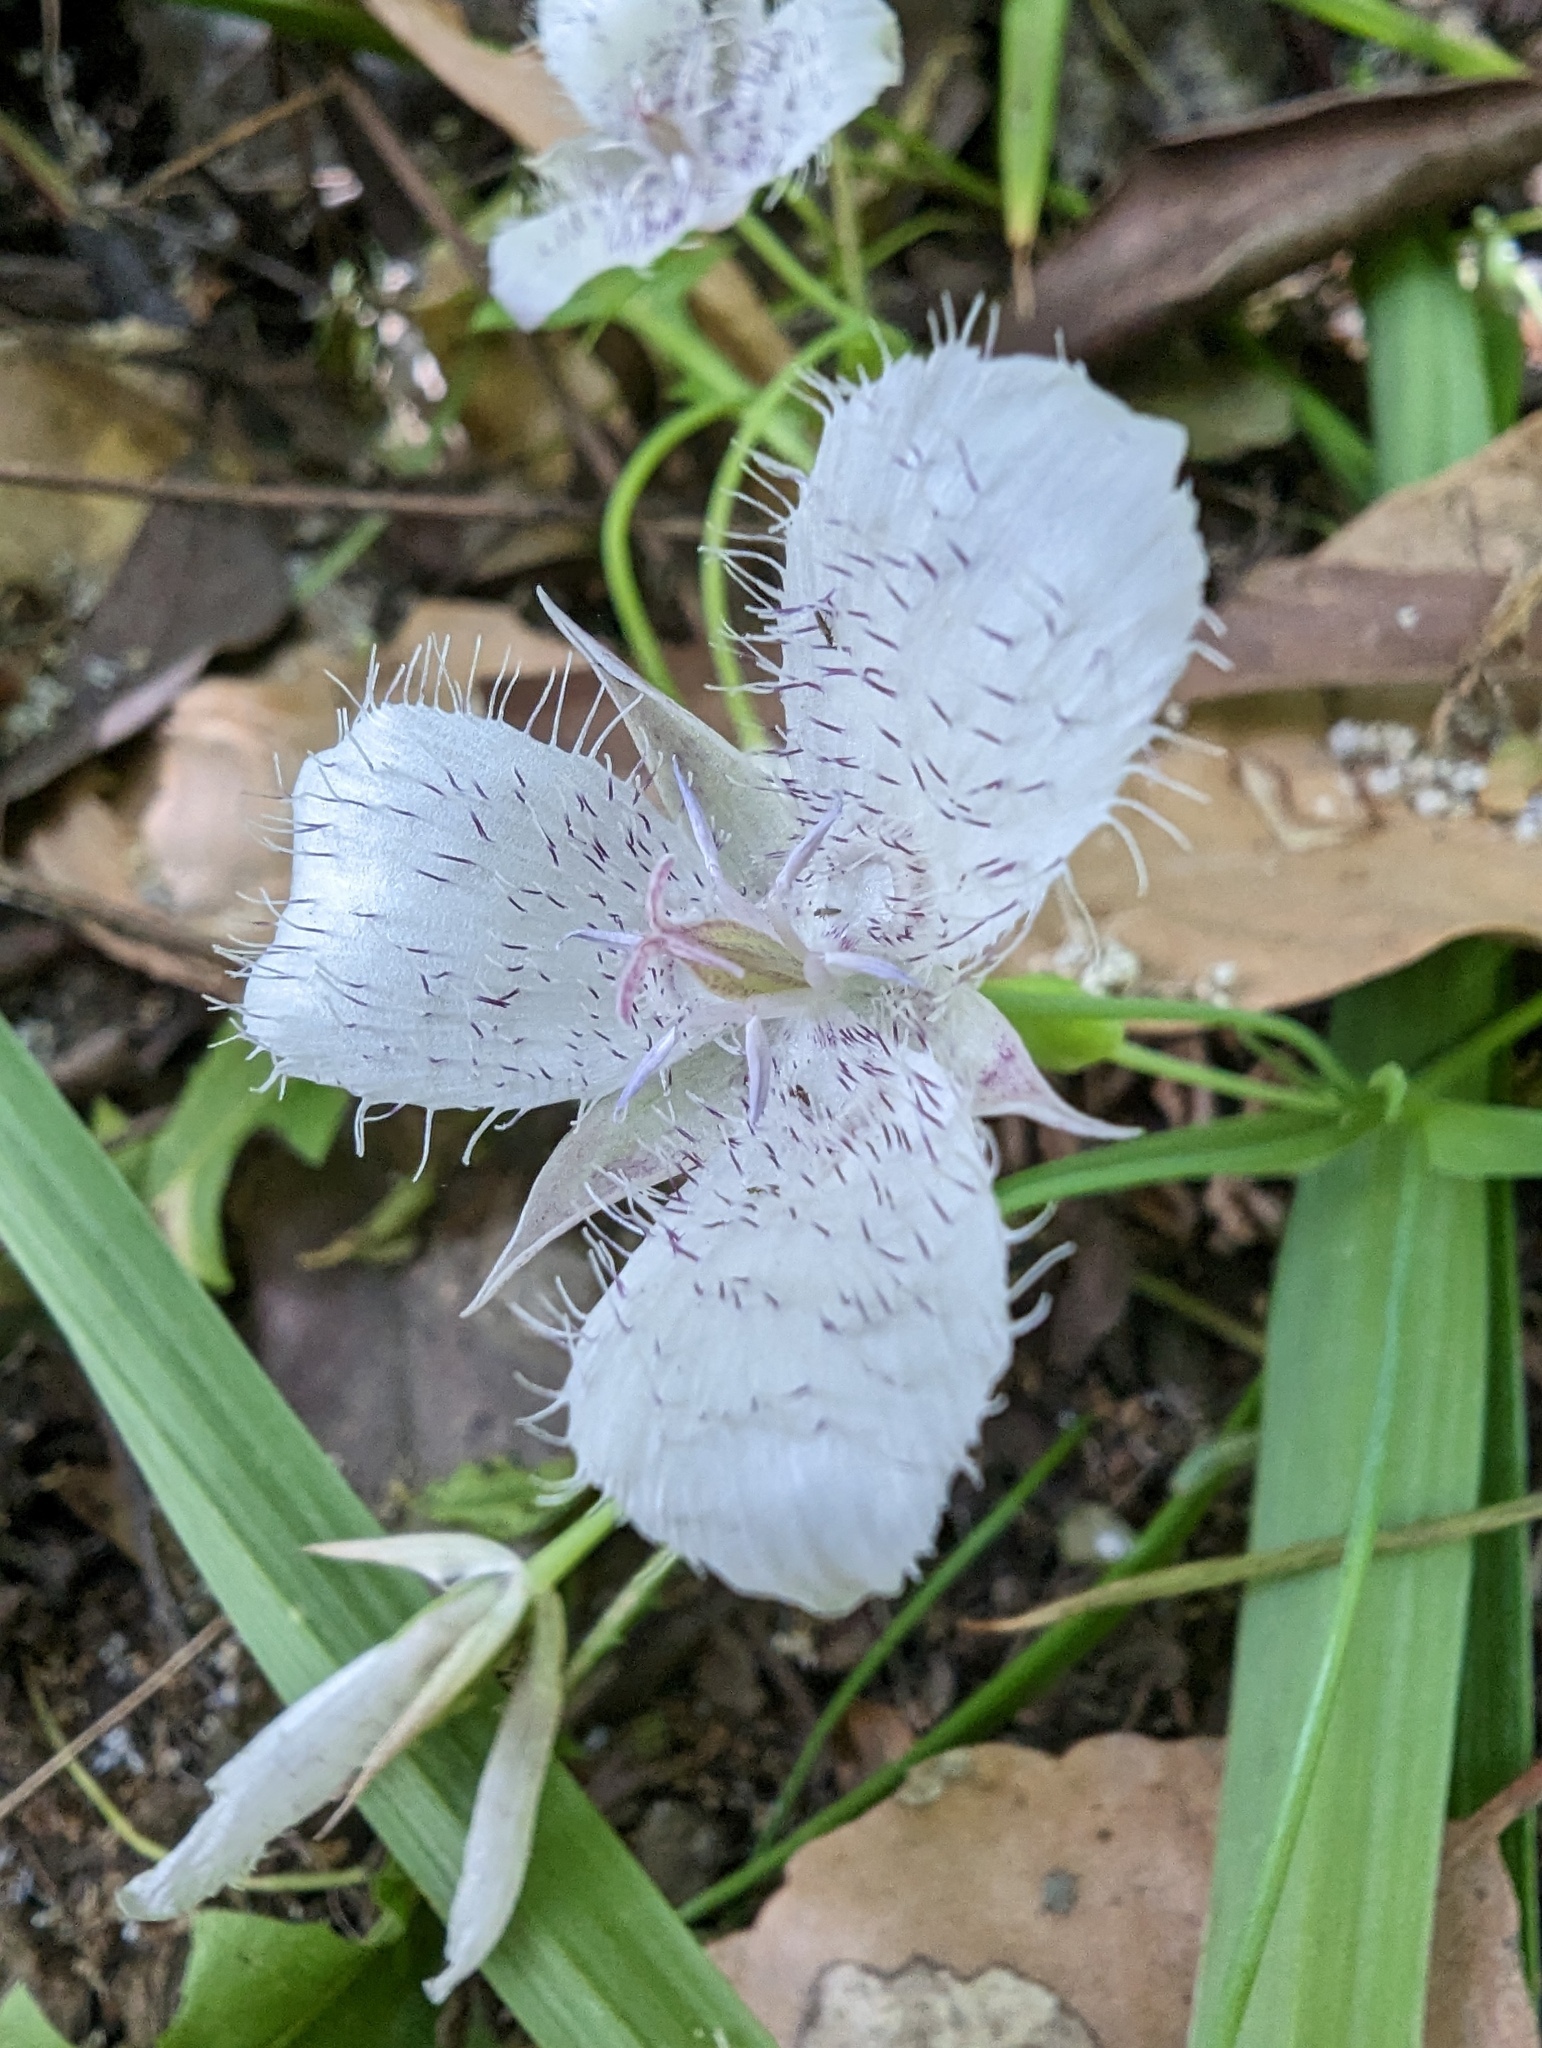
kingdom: Plantae
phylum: Tracheophyta
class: Liliopsida
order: Liliales
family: Liliaceae
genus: Calochortus
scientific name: Calochortus tolmiei
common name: Pussy-ears
